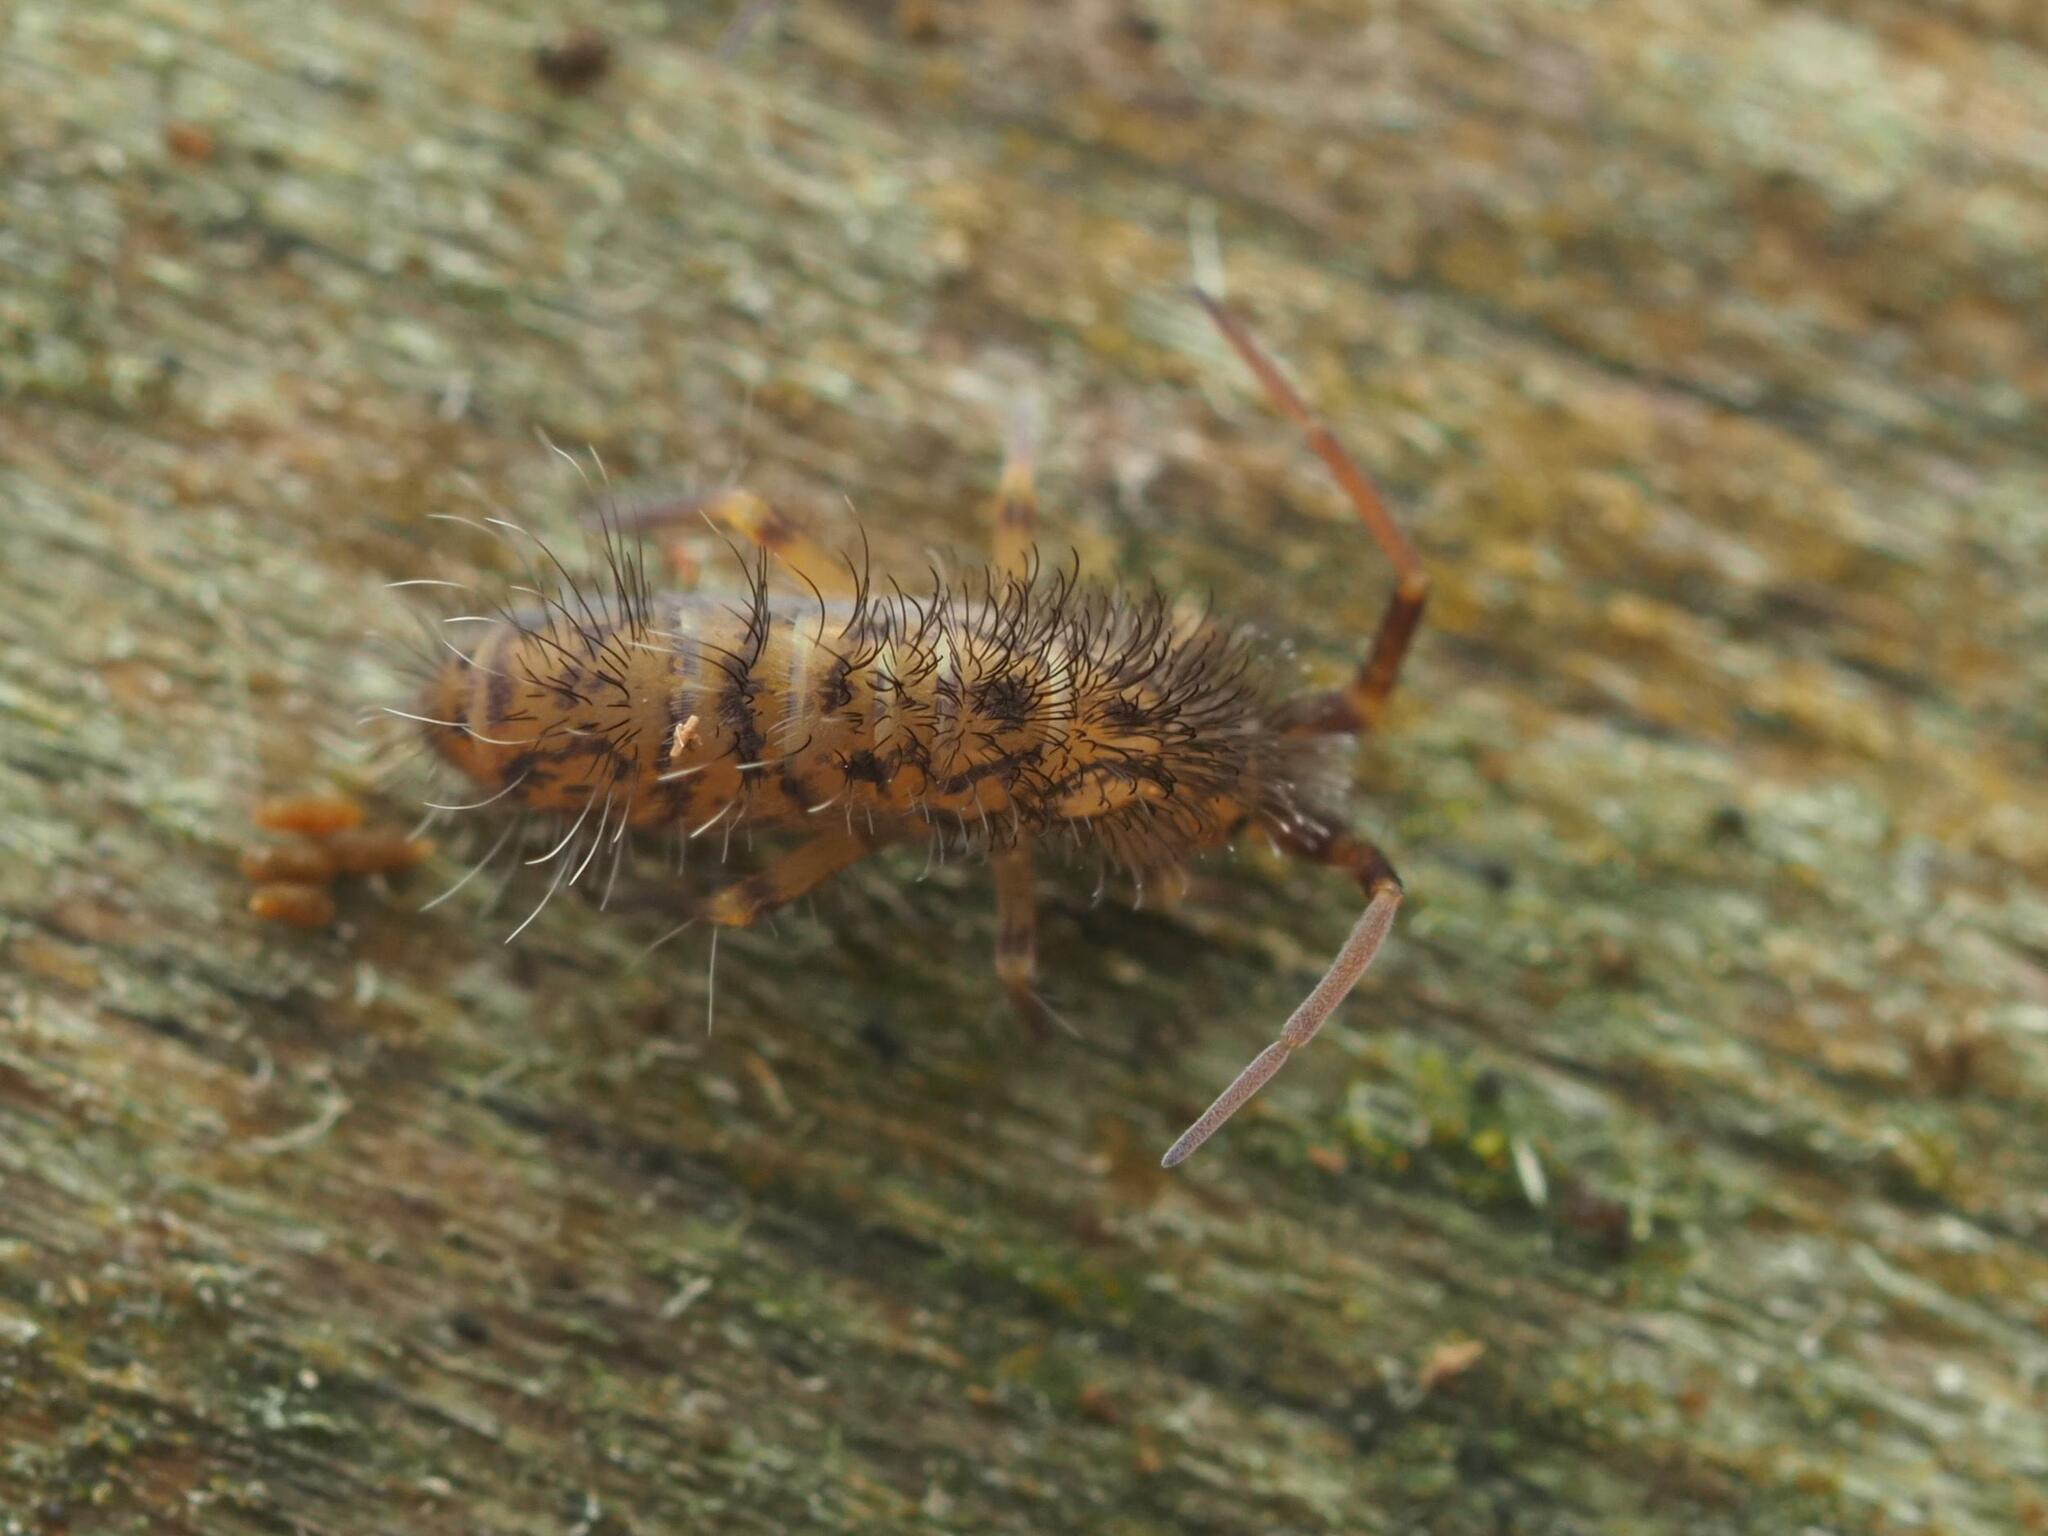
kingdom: Animalia
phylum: Arthropoda
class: Collembola
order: Entomobryomorpha
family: Orchesellidae
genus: Orchesella
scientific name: Orchesella villosa
